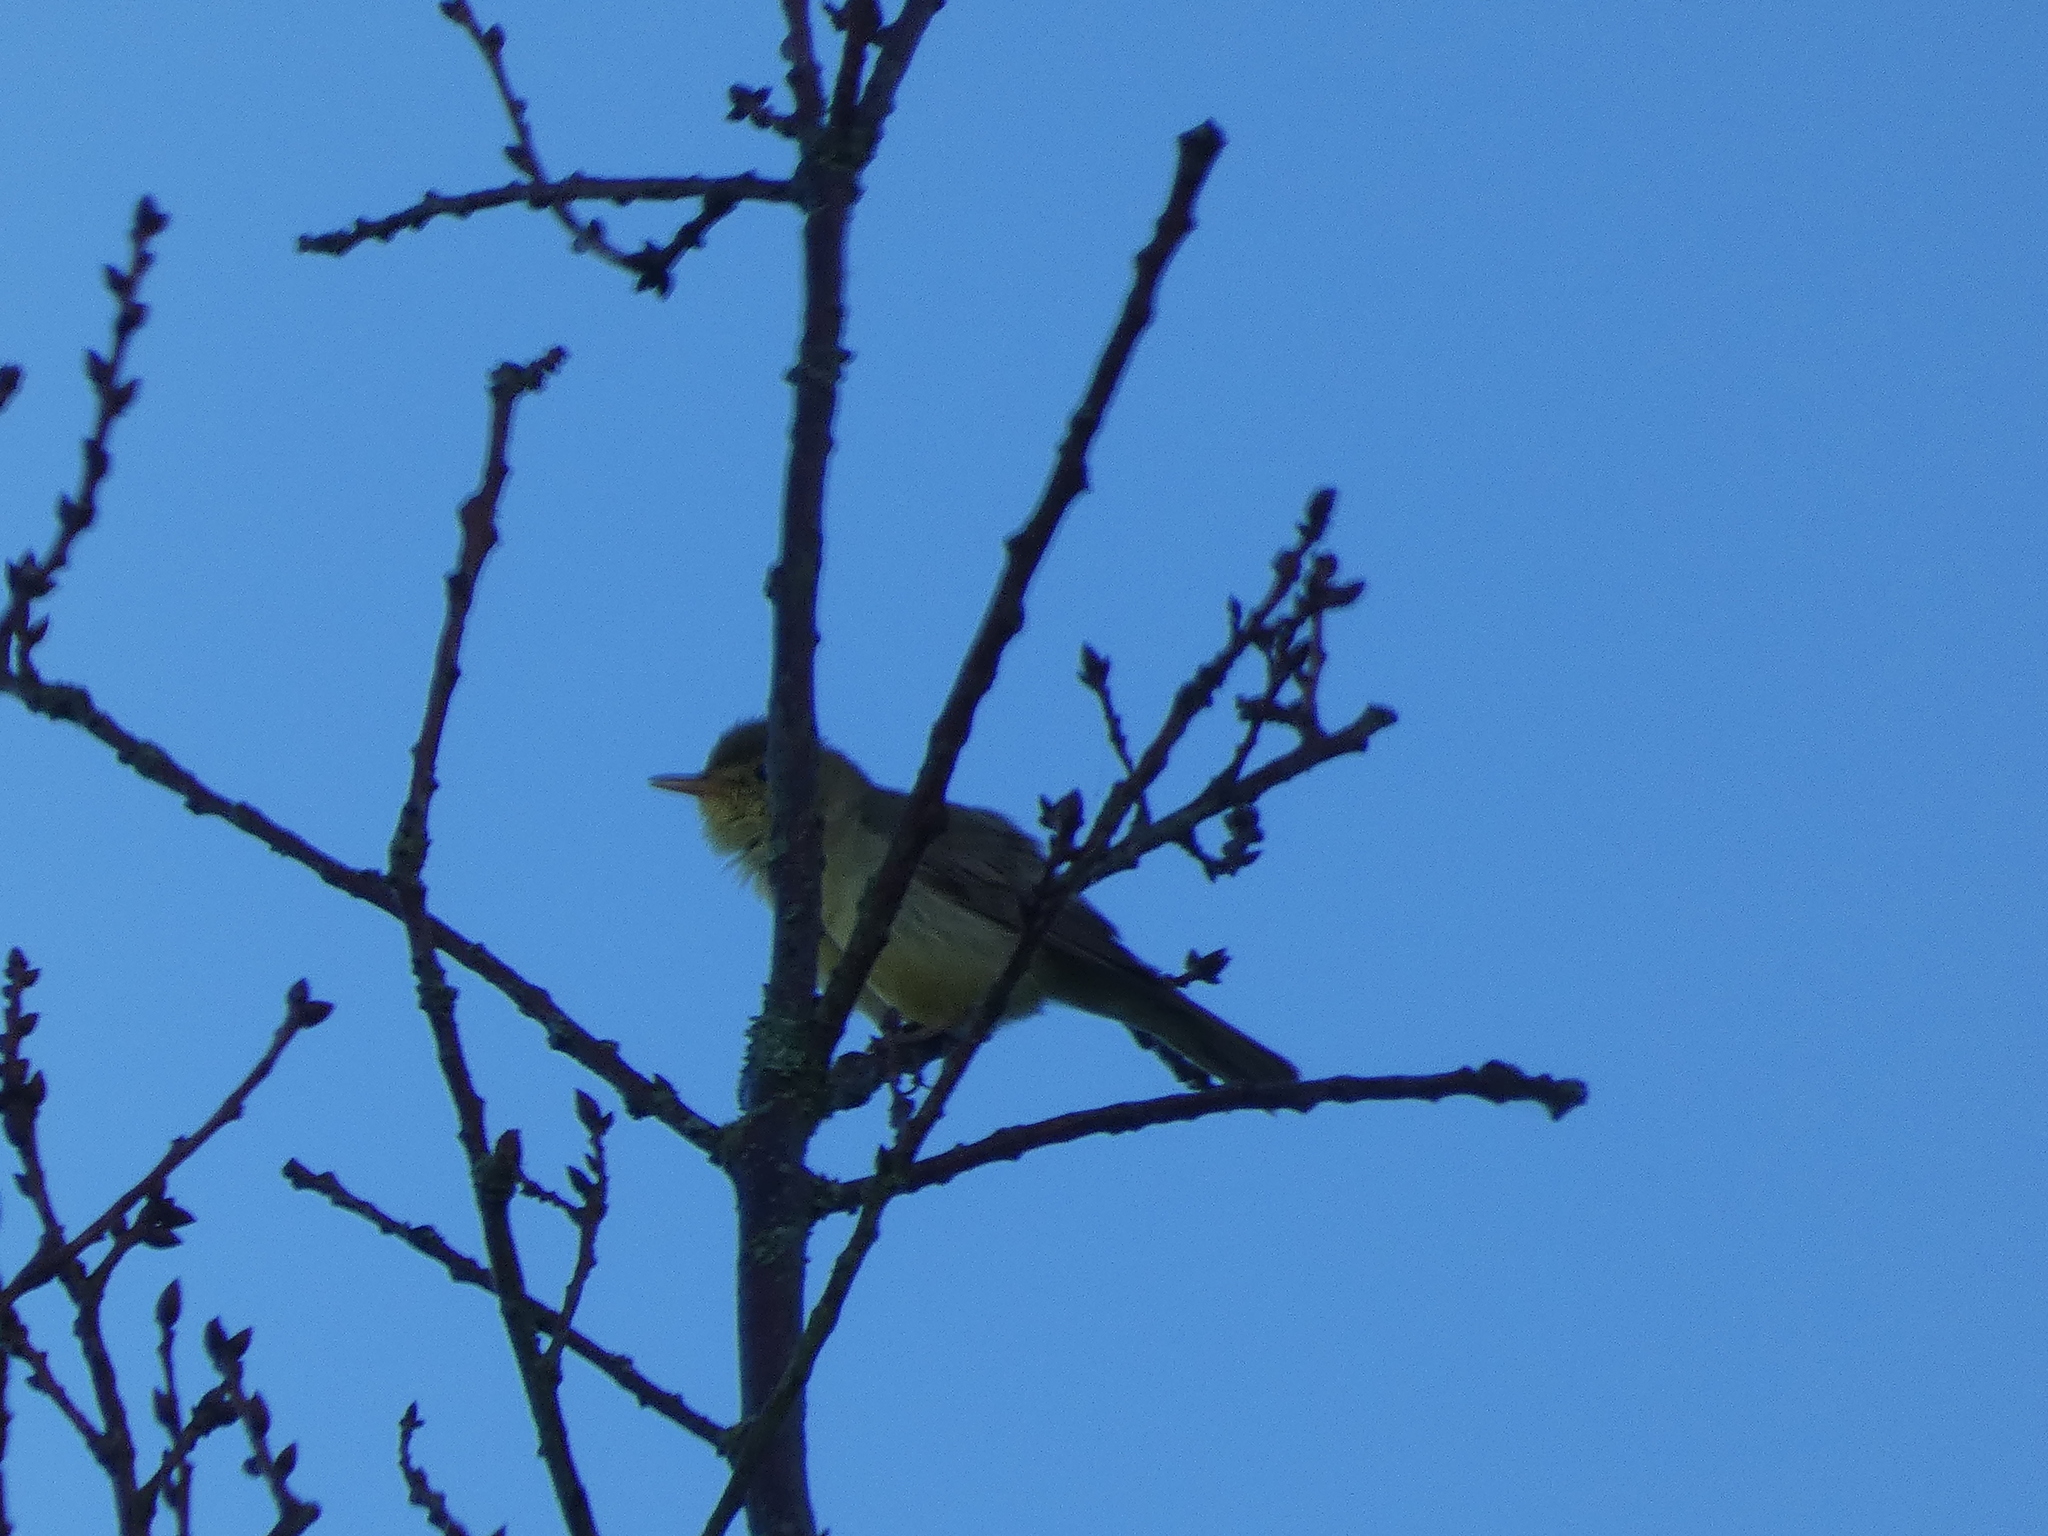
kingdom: Animalia
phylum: Chordata
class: Aves
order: Passeriformes
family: Acrocephalidae
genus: Hippolais
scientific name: Hippolais polyglotta
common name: Melodious warbler
